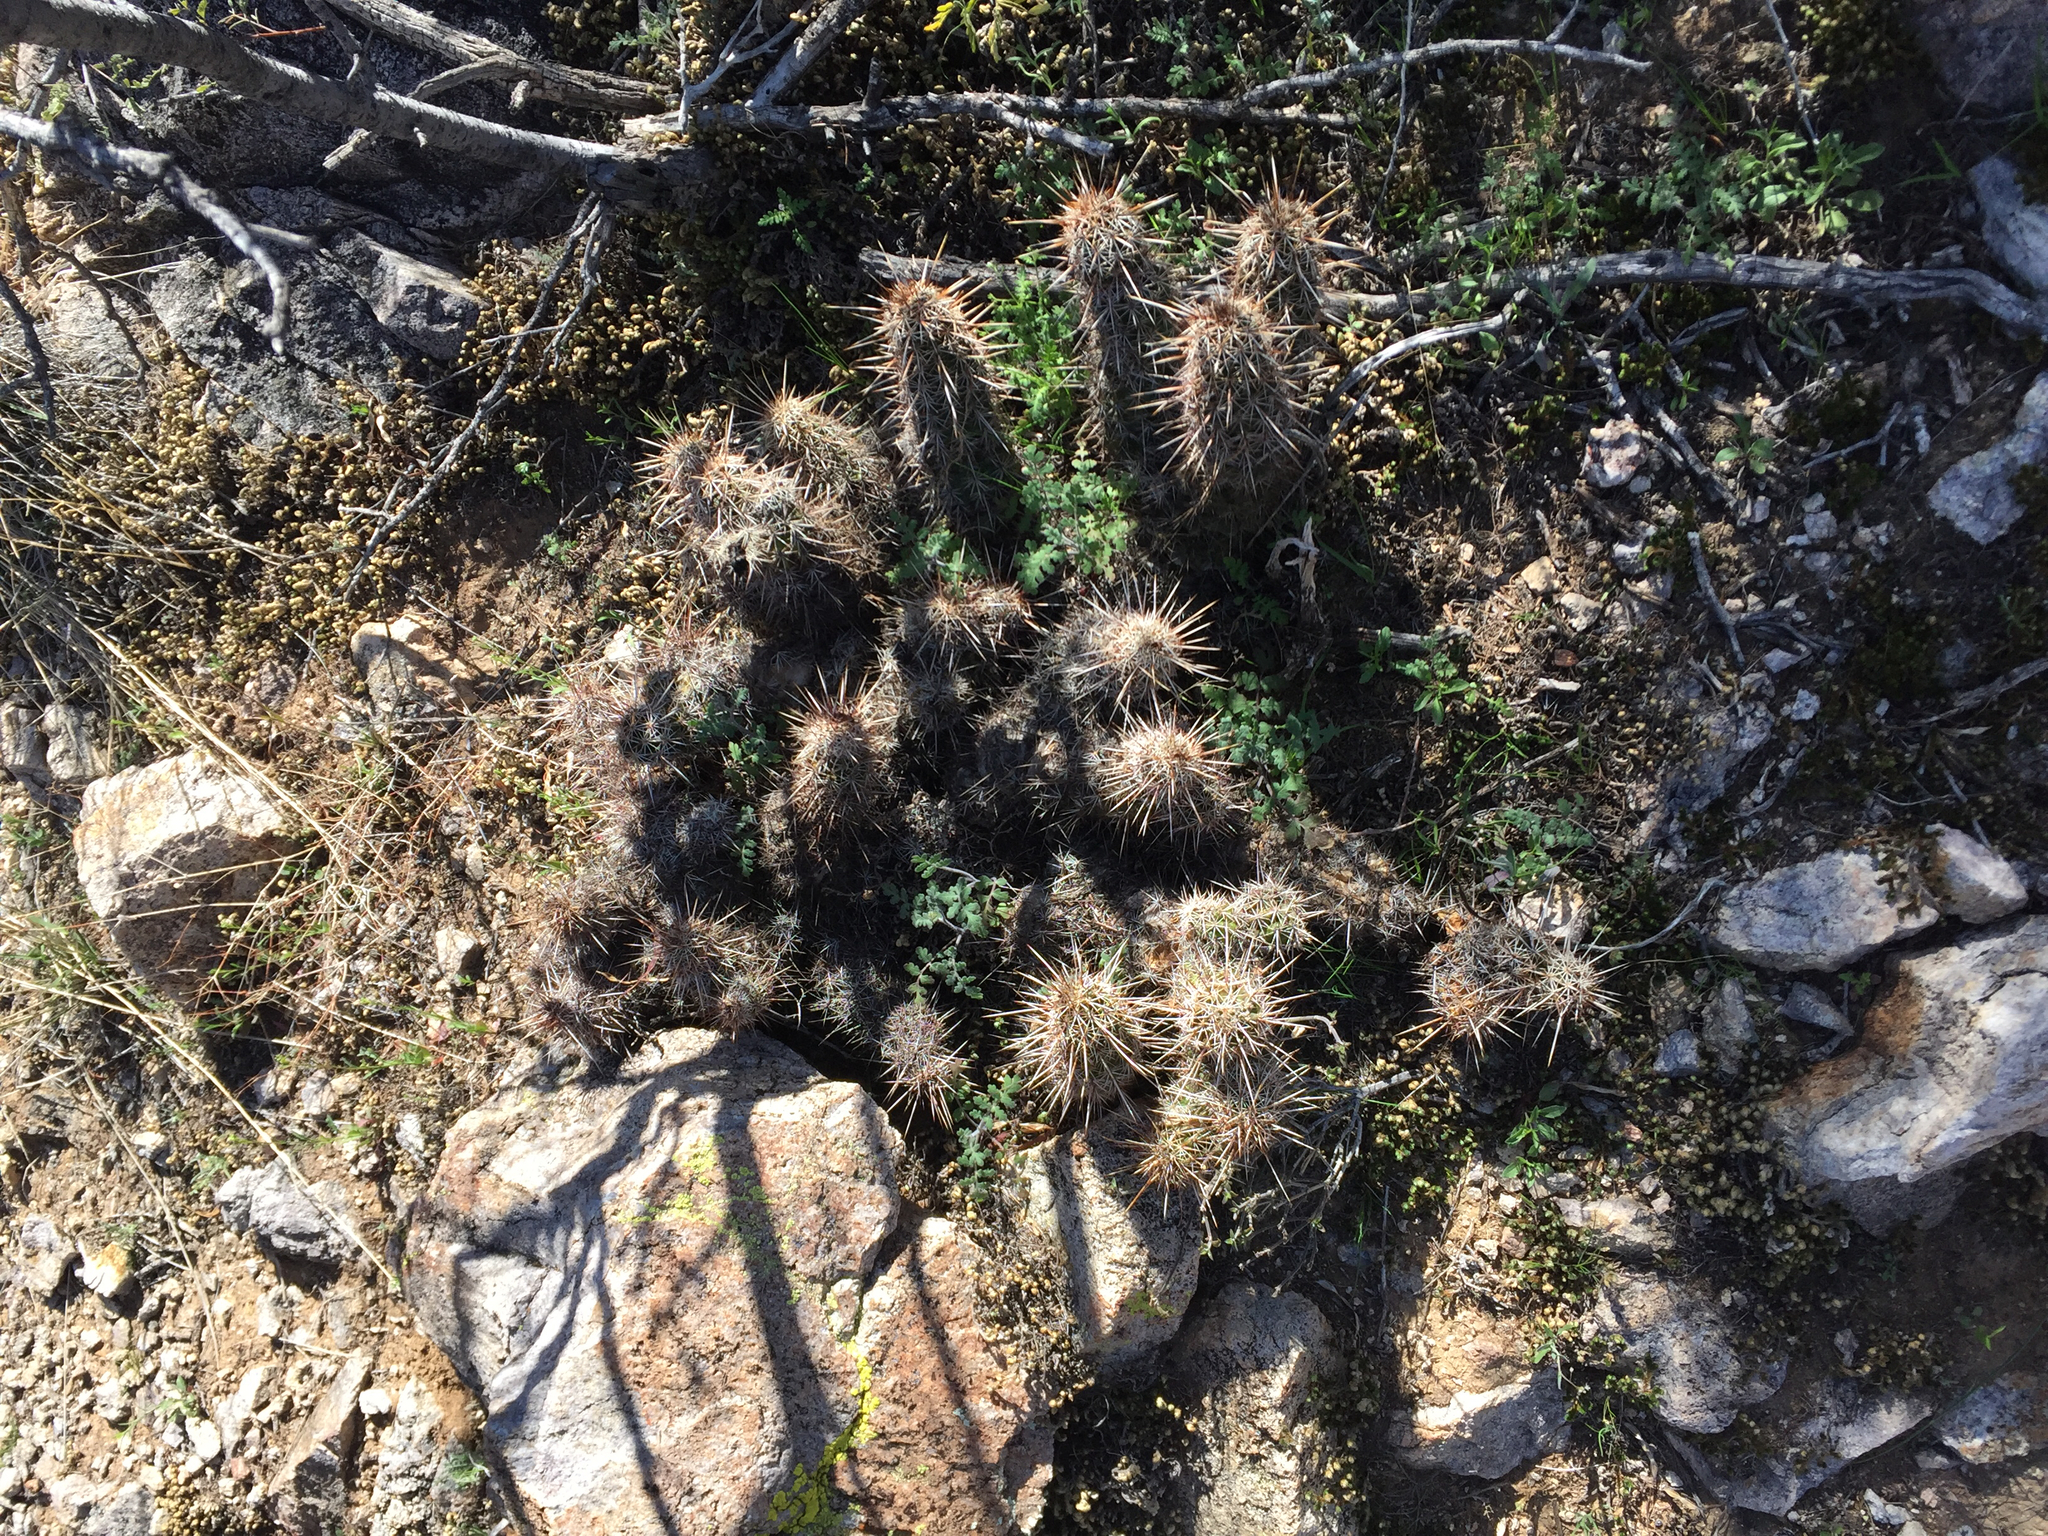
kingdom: Plantae
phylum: Tracheophyta
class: Magnoliopsida
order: Caryophyllales
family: Cactaceae
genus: Echinocereus
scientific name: Echinocereus fasciculatus
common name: Bundle hedgehog
